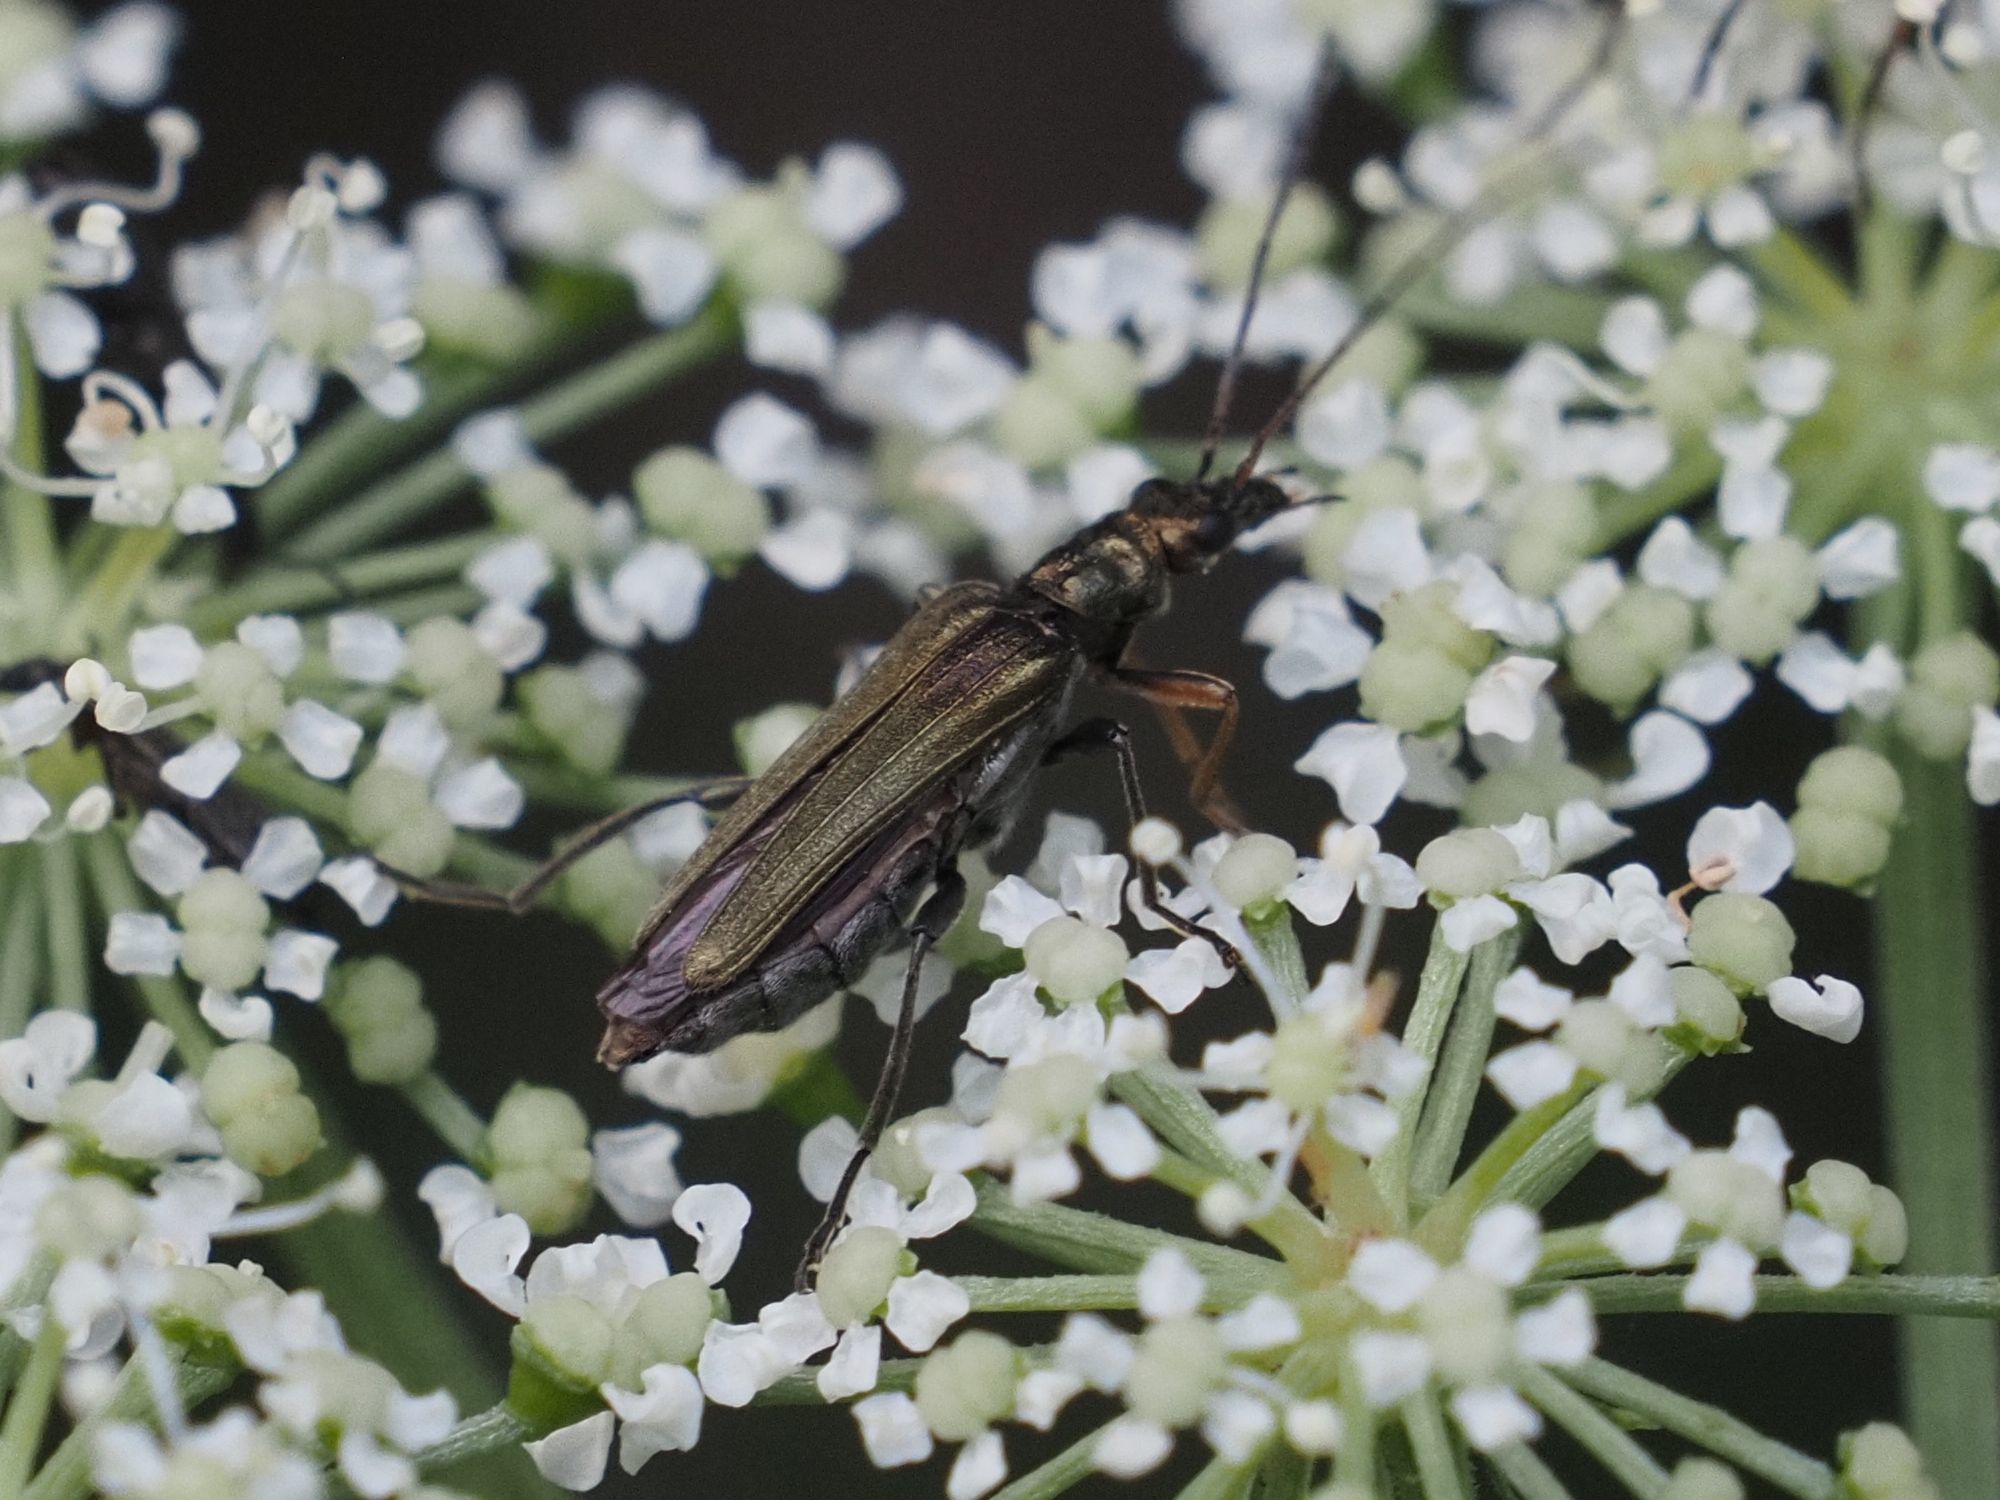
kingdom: Animalia
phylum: Arthropoda
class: Insecta
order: Coleoptera
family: Oedemeridae
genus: Oedemera
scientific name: Oedemera flavipes
